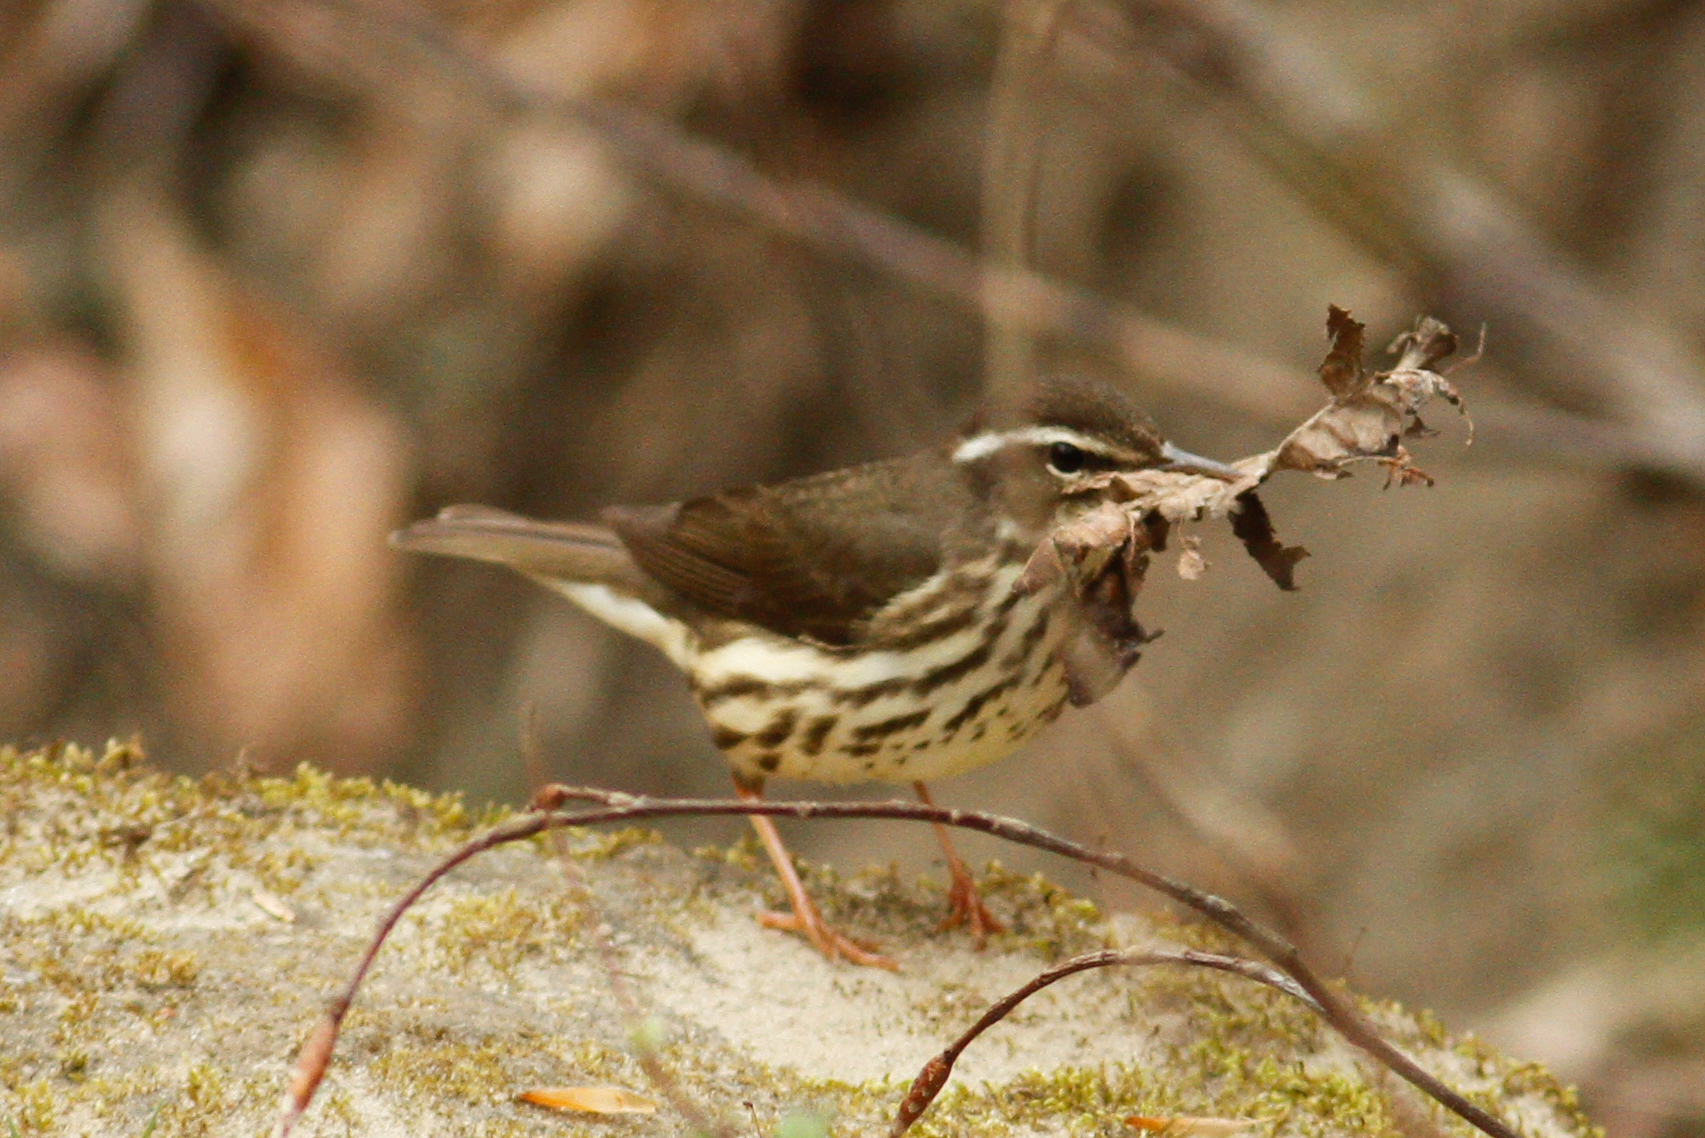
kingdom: Animalia
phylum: Chordata
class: Aves
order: Passeriformes
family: Parulidae
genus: Parkesia
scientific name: Parkesia motacilla
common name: Louisiana waterthrush
